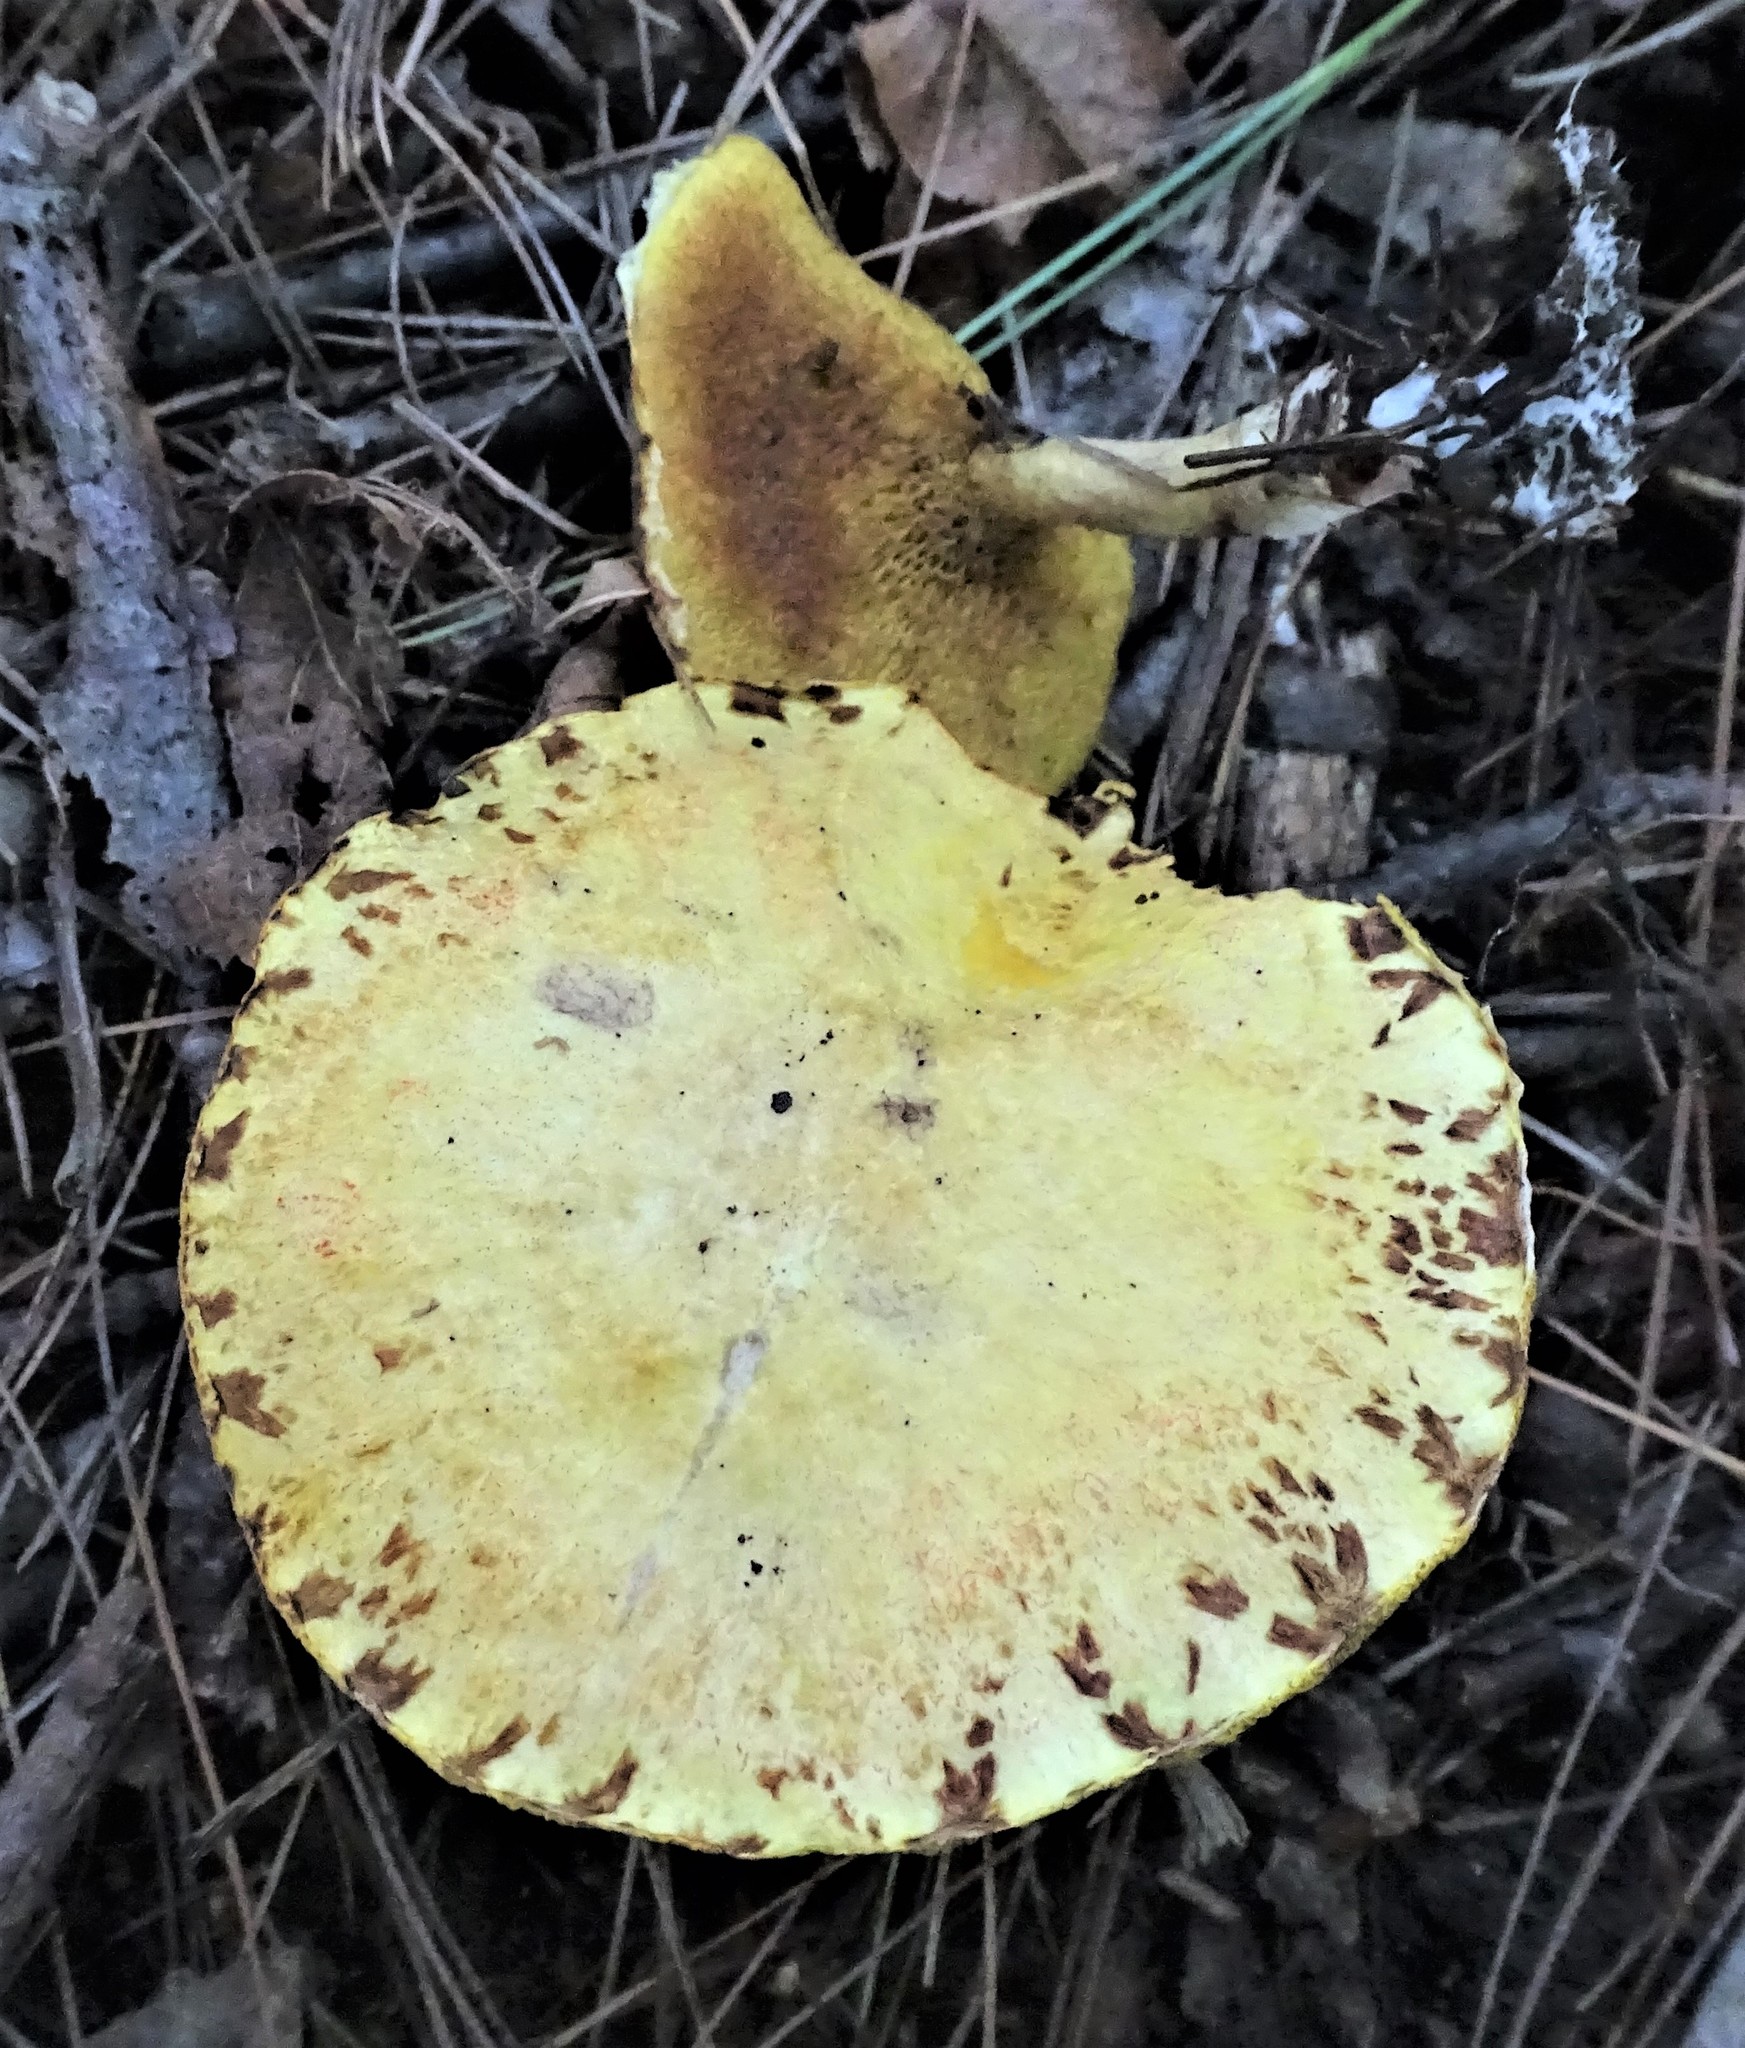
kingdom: Fungi
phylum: Basidiomycota
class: Agaricomycetes
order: Boletales
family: Suillaceae
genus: Suillus
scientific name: Suillus americanus
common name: Chicken fat mushroom
